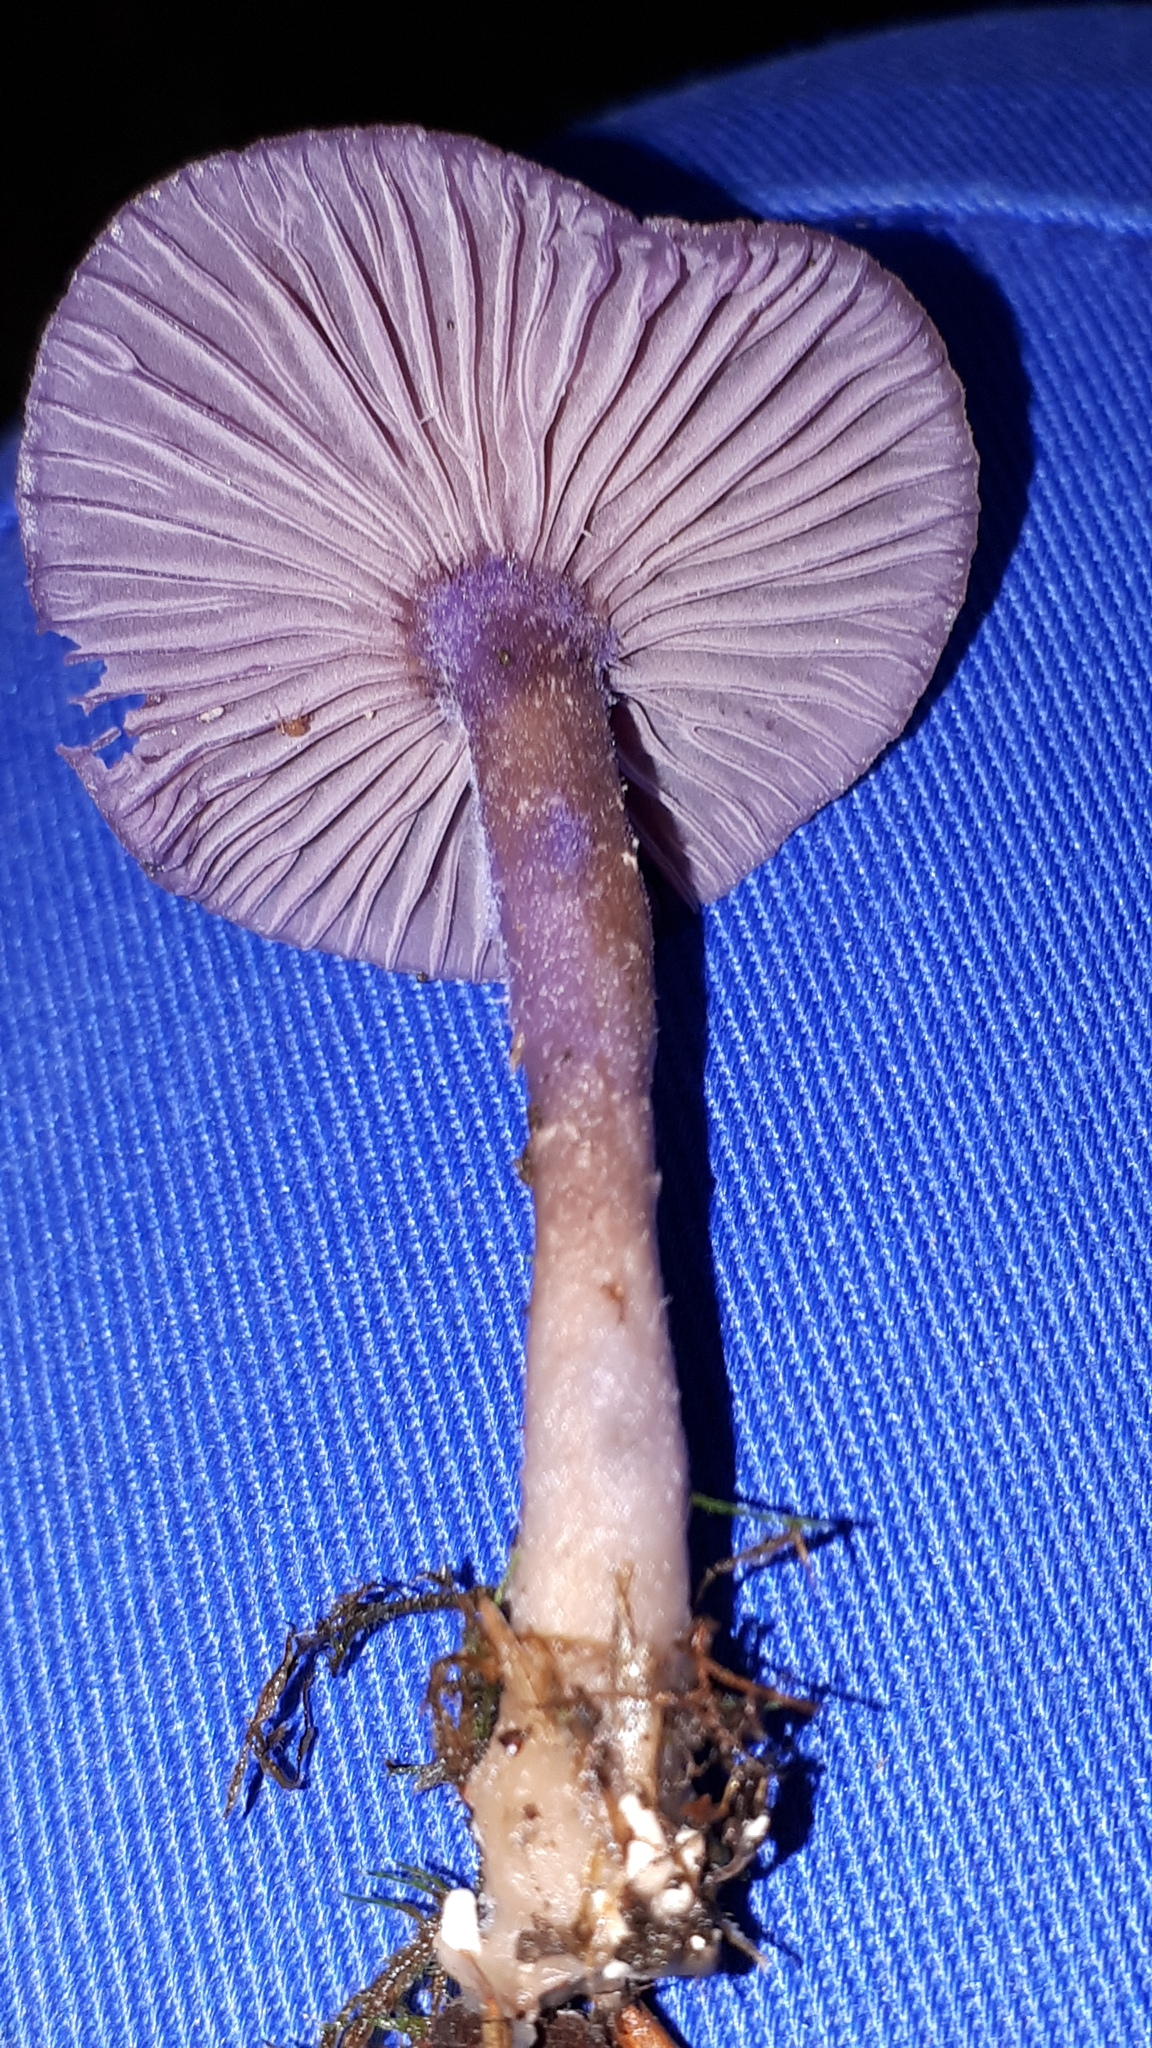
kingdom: Fungi
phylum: Basidiomycota
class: Agaricomycetes
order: Agaricales
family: Hydnangiaceae
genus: Laccaria
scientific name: Laccaria amethystina
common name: Amethyst deceiver
